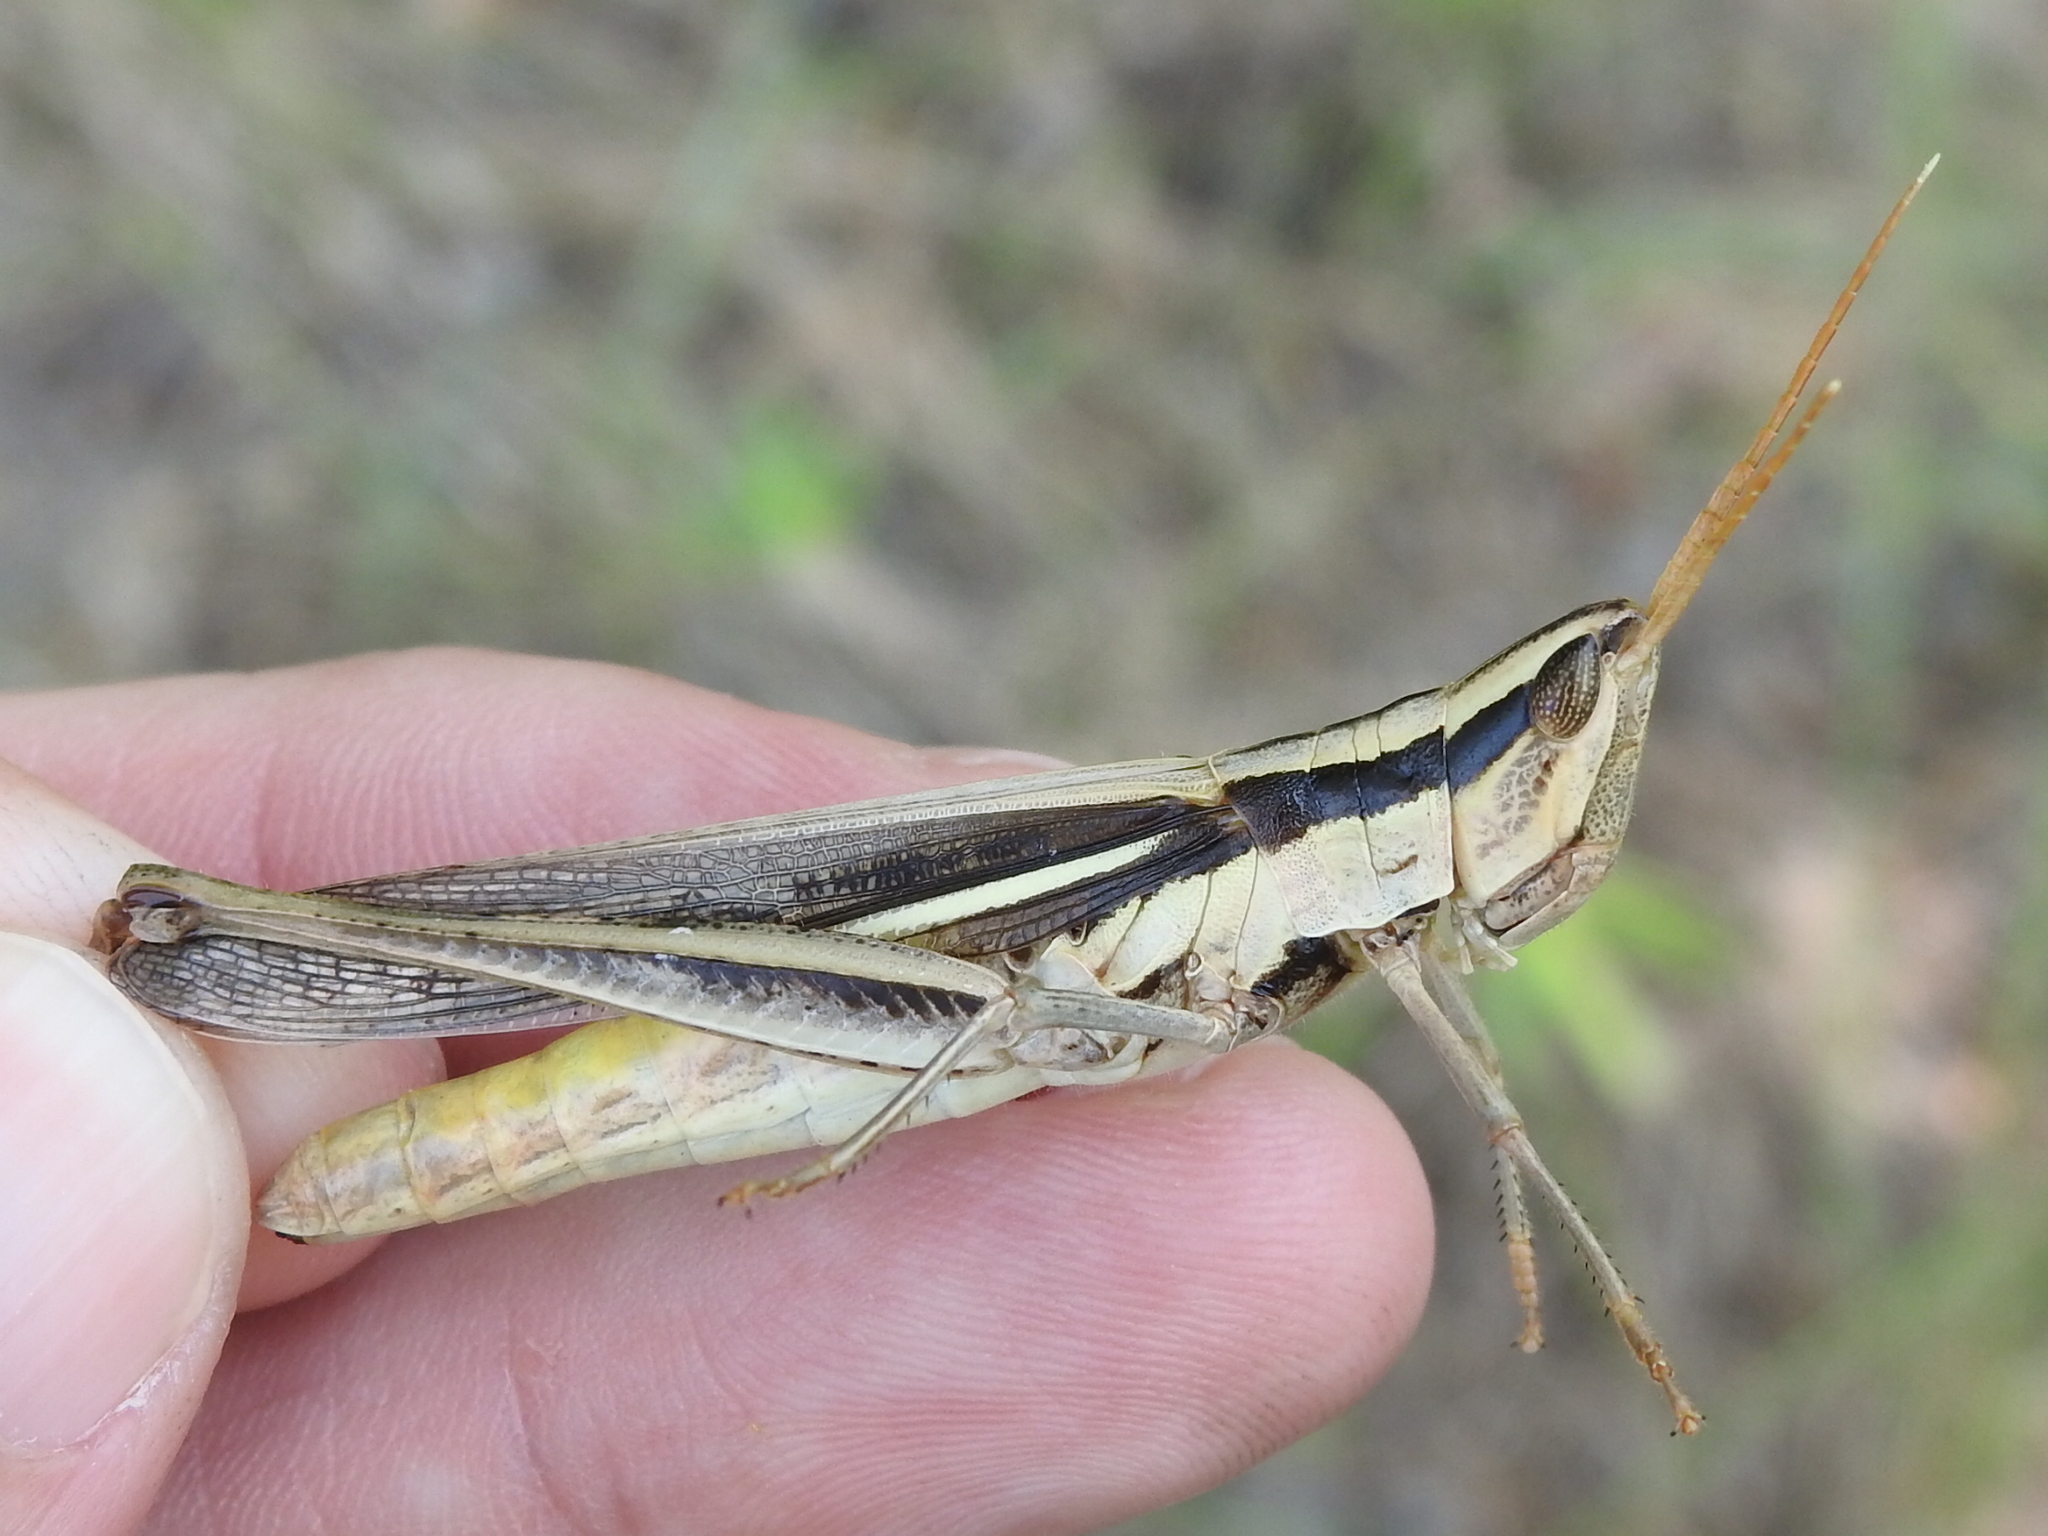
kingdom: Animalia
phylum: Arthropoda
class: Insecta
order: Orthoptera
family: Acrididae
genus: Mermiria
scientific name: Mermiria bivittata
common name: Two-striped mermiria grasshopper
